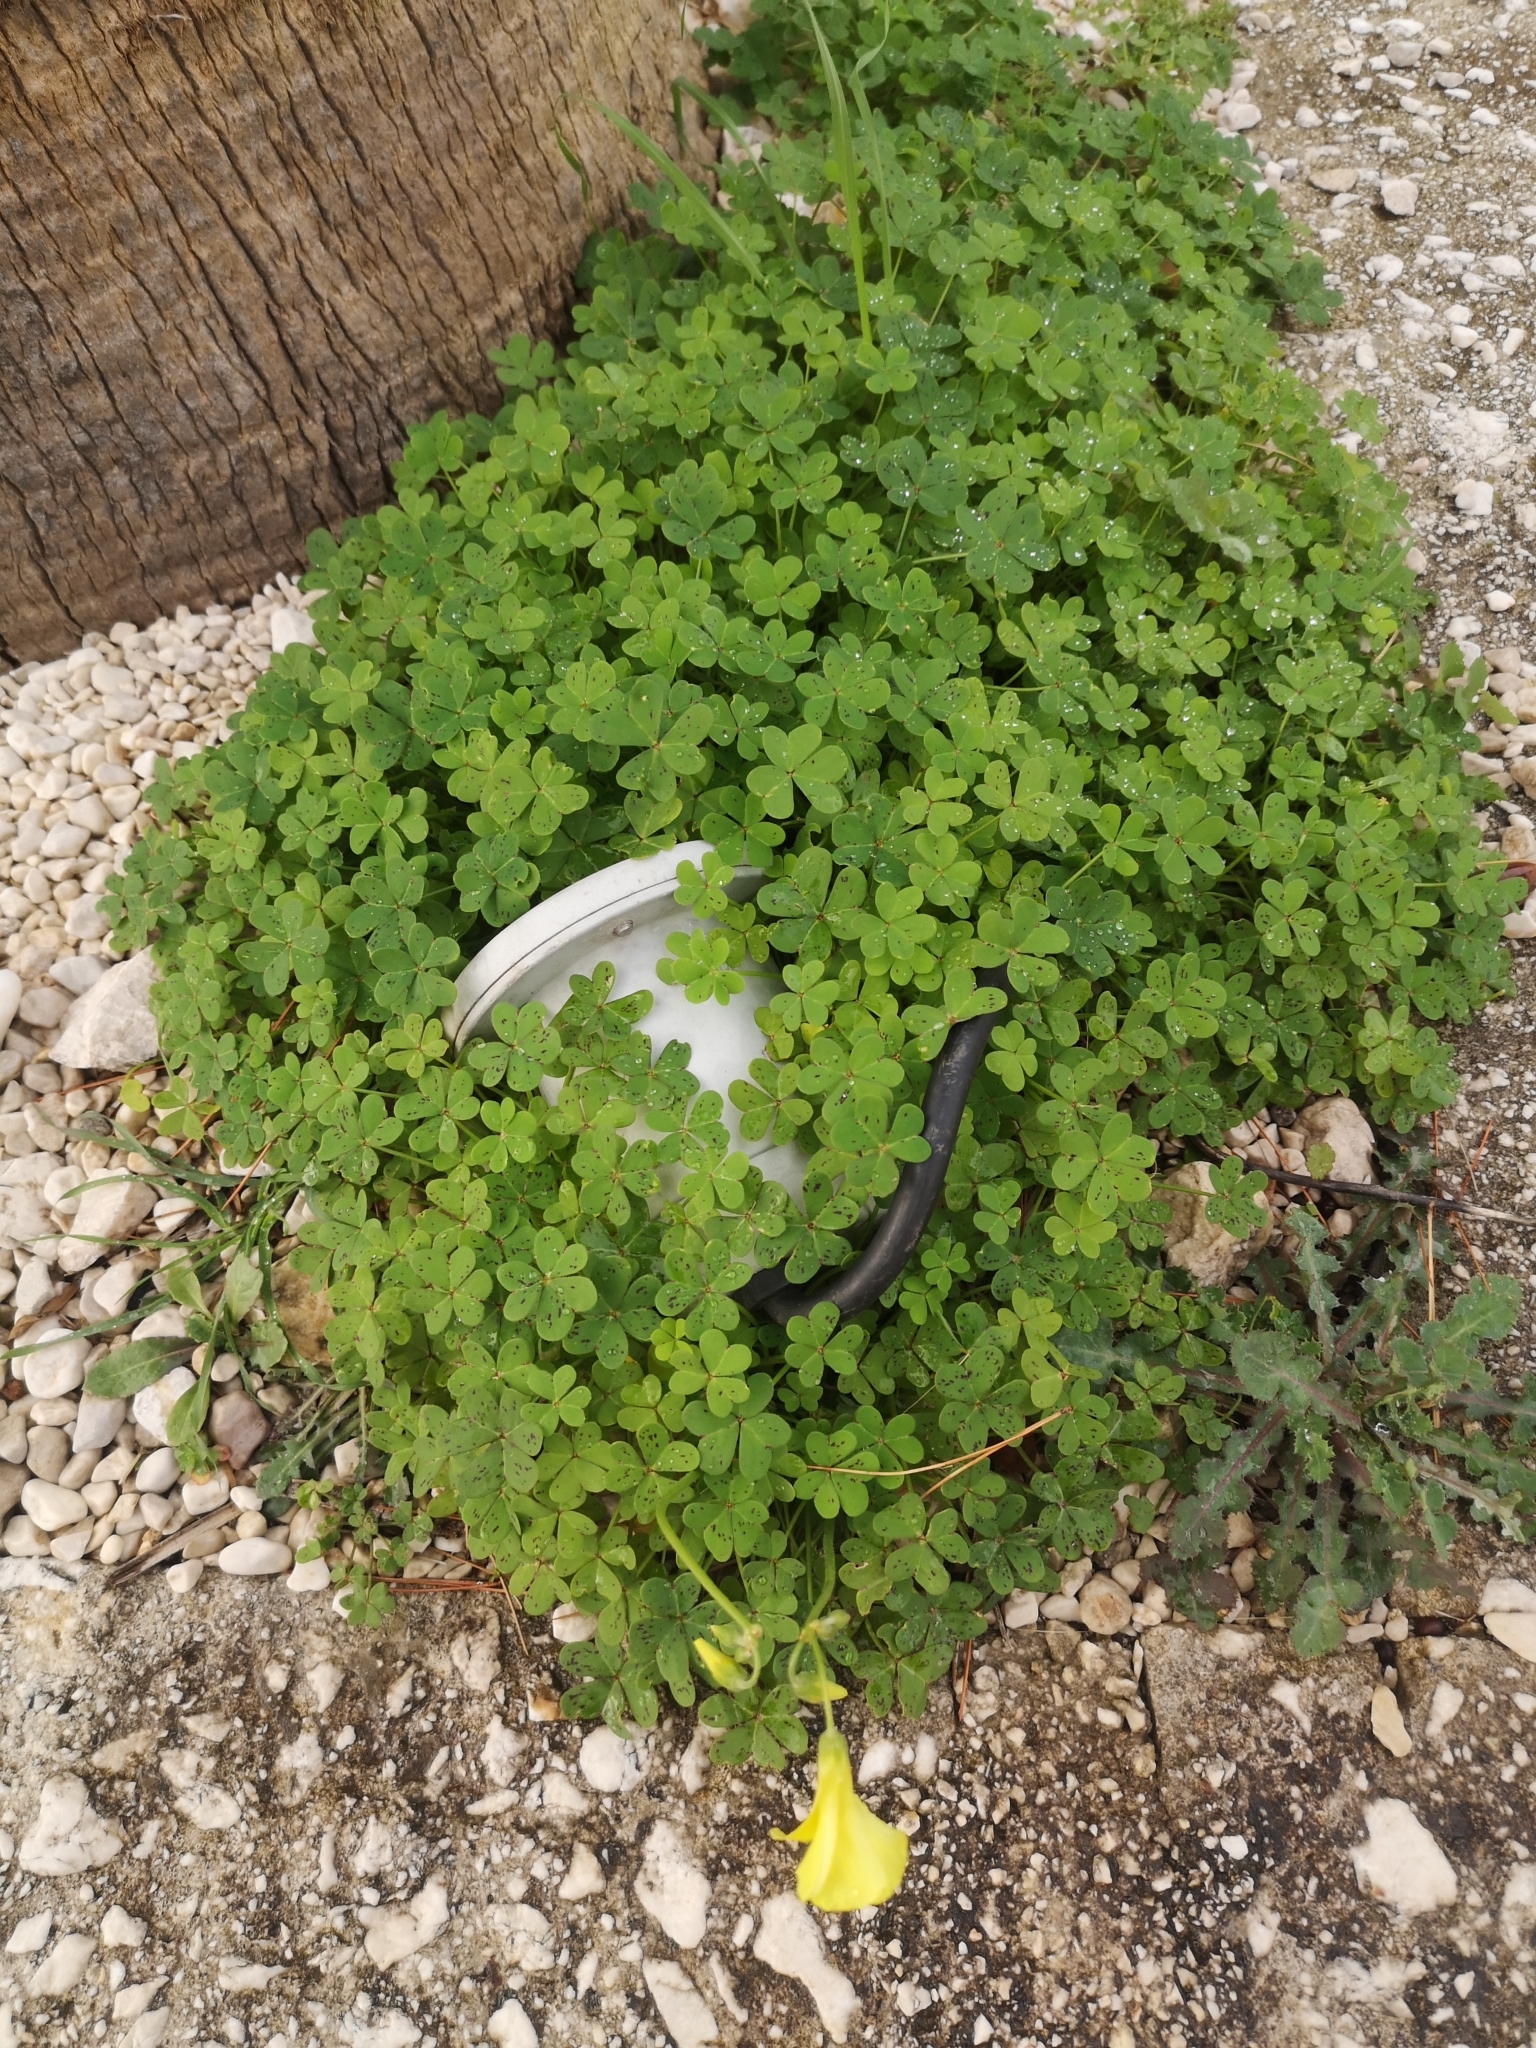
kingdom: Plantae
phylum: Tracheophyta
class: Magnoliopsida
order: Oxalidales
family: Oxalidaceae
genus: Oxalis
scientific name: Oxalis pes-caprae
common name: Bermuda-buttercup
